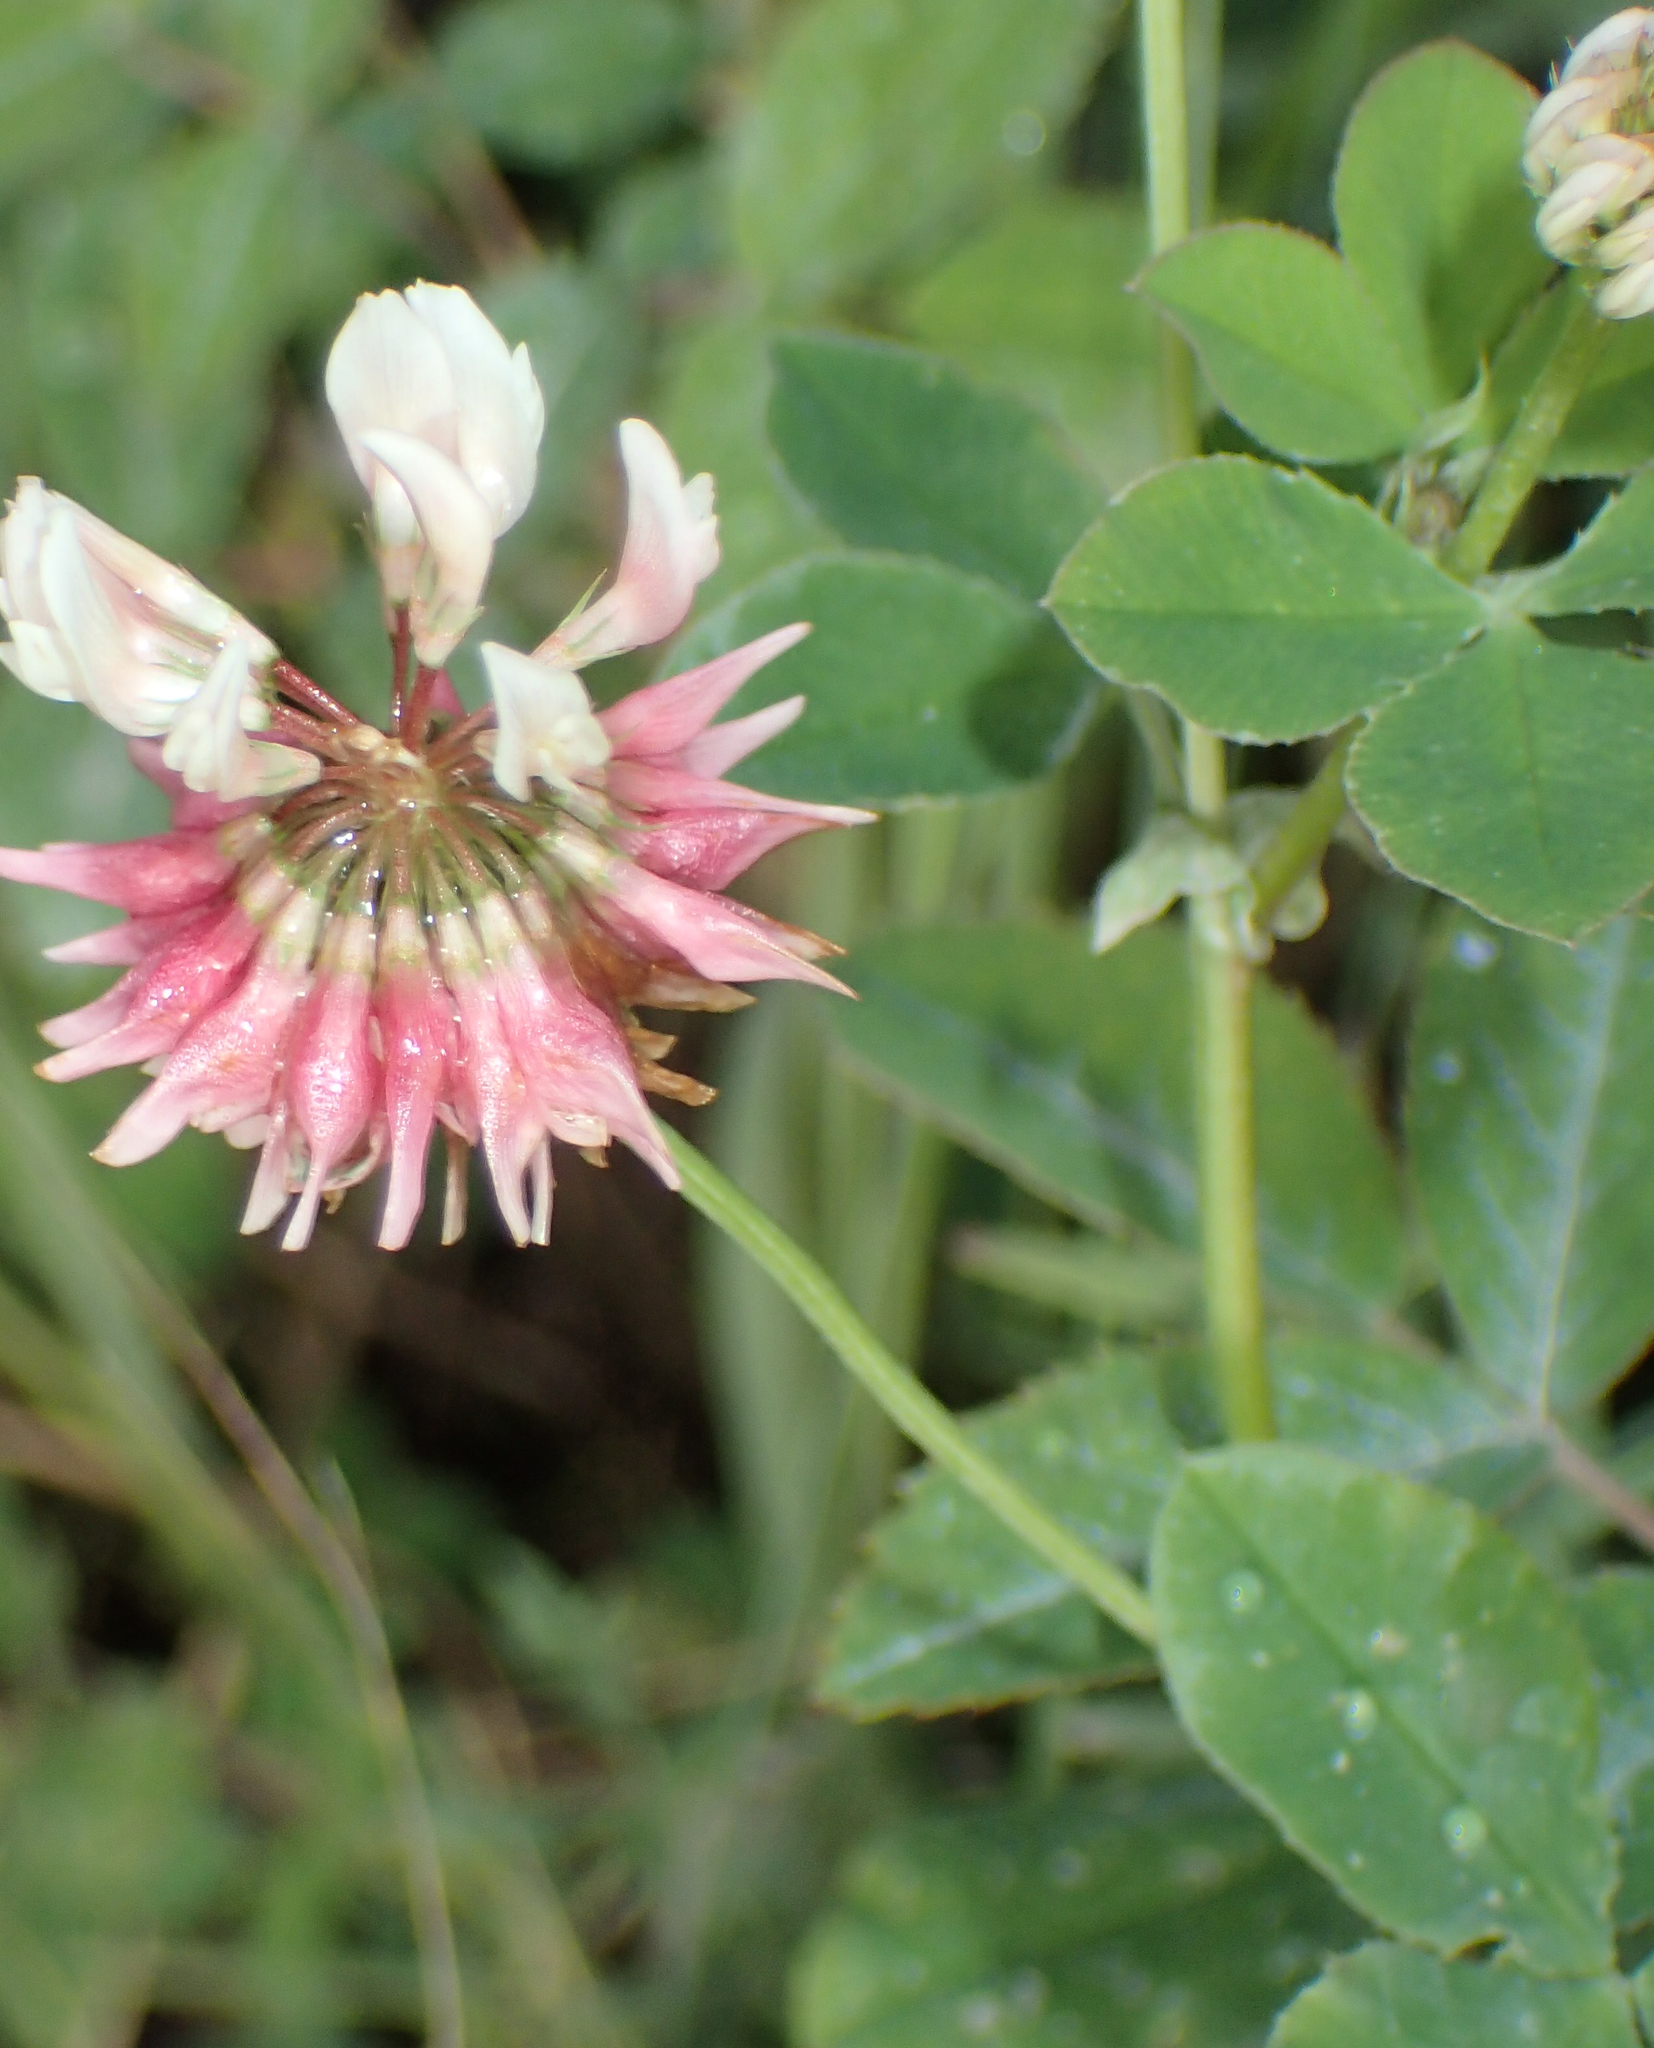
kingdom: Plantae
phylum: Tracheophyta
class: Magnoliopsida
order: Fabales
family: Fabaceae
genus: Trifolium
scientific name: Trifolium hybridum
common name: Alsike clover
